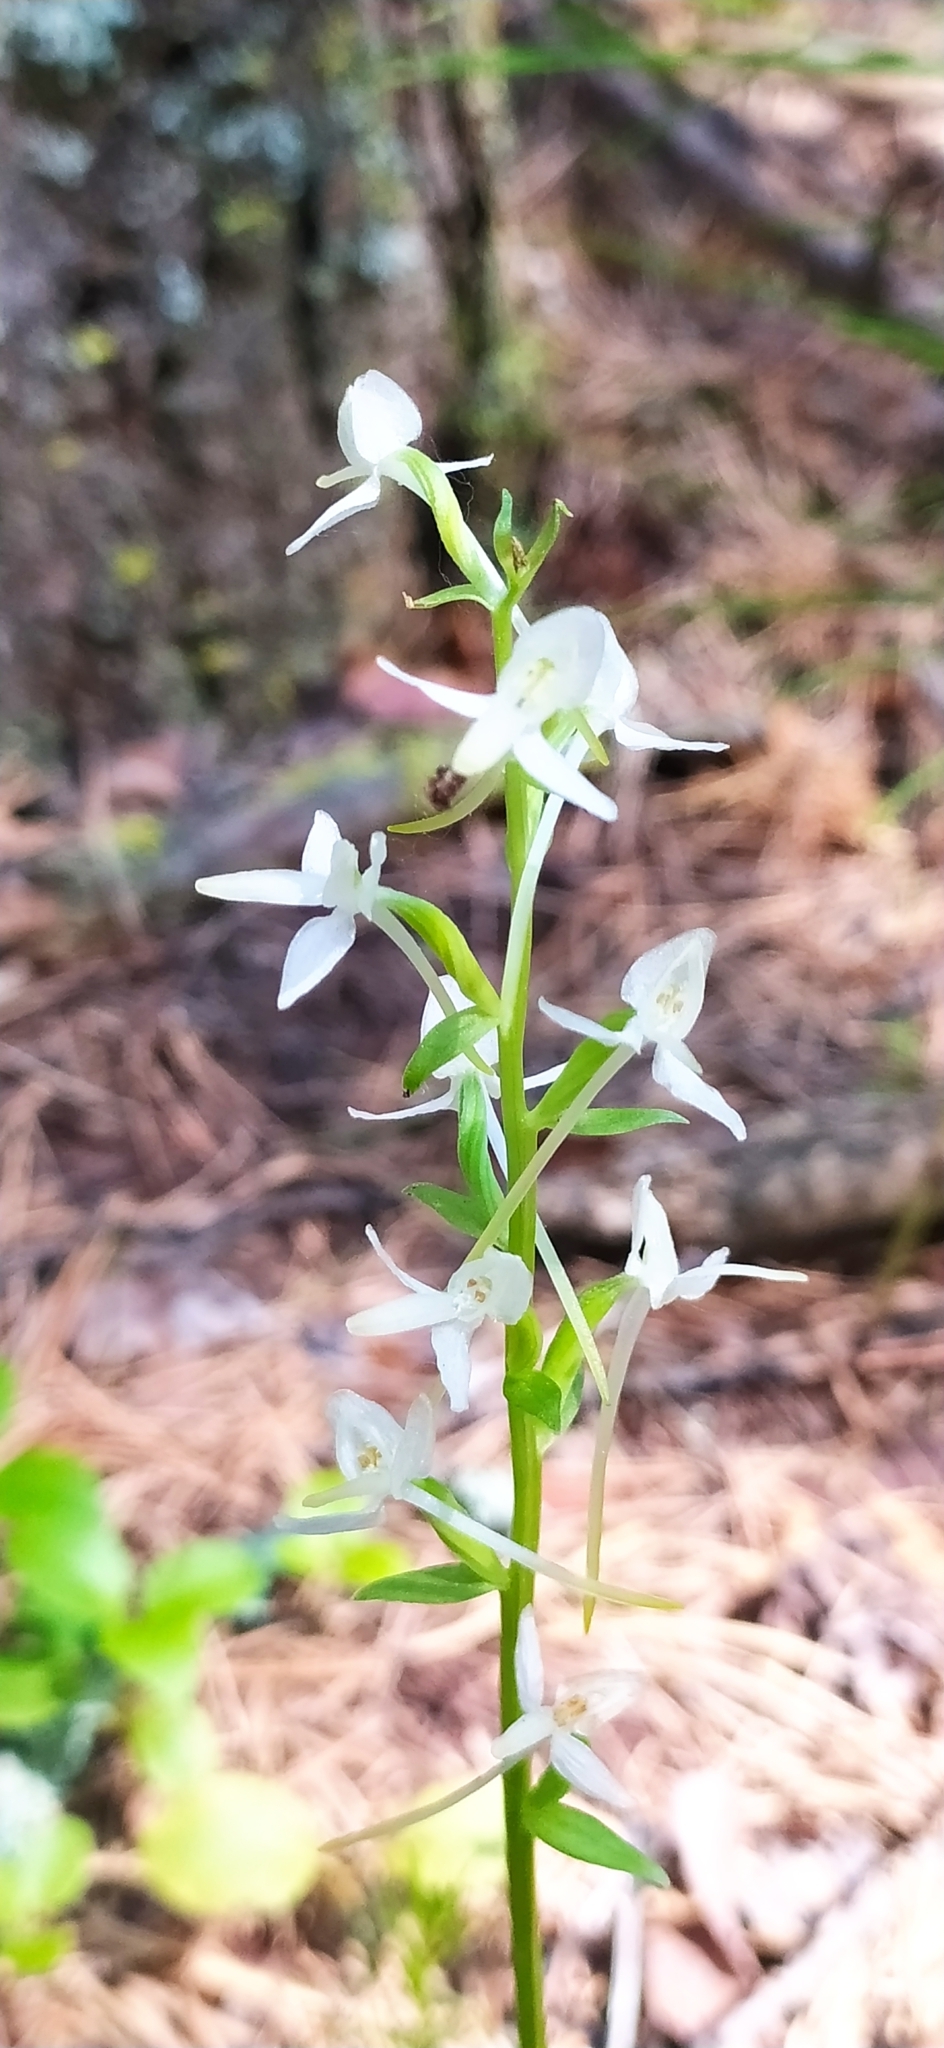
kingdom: Plantae
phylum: Tracheophyta
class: Liliopsida
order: Asparagales
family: Orchidaceae
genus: Platanthera
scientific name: Platanthera bifolia
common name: Lesser butterfly-orchid
